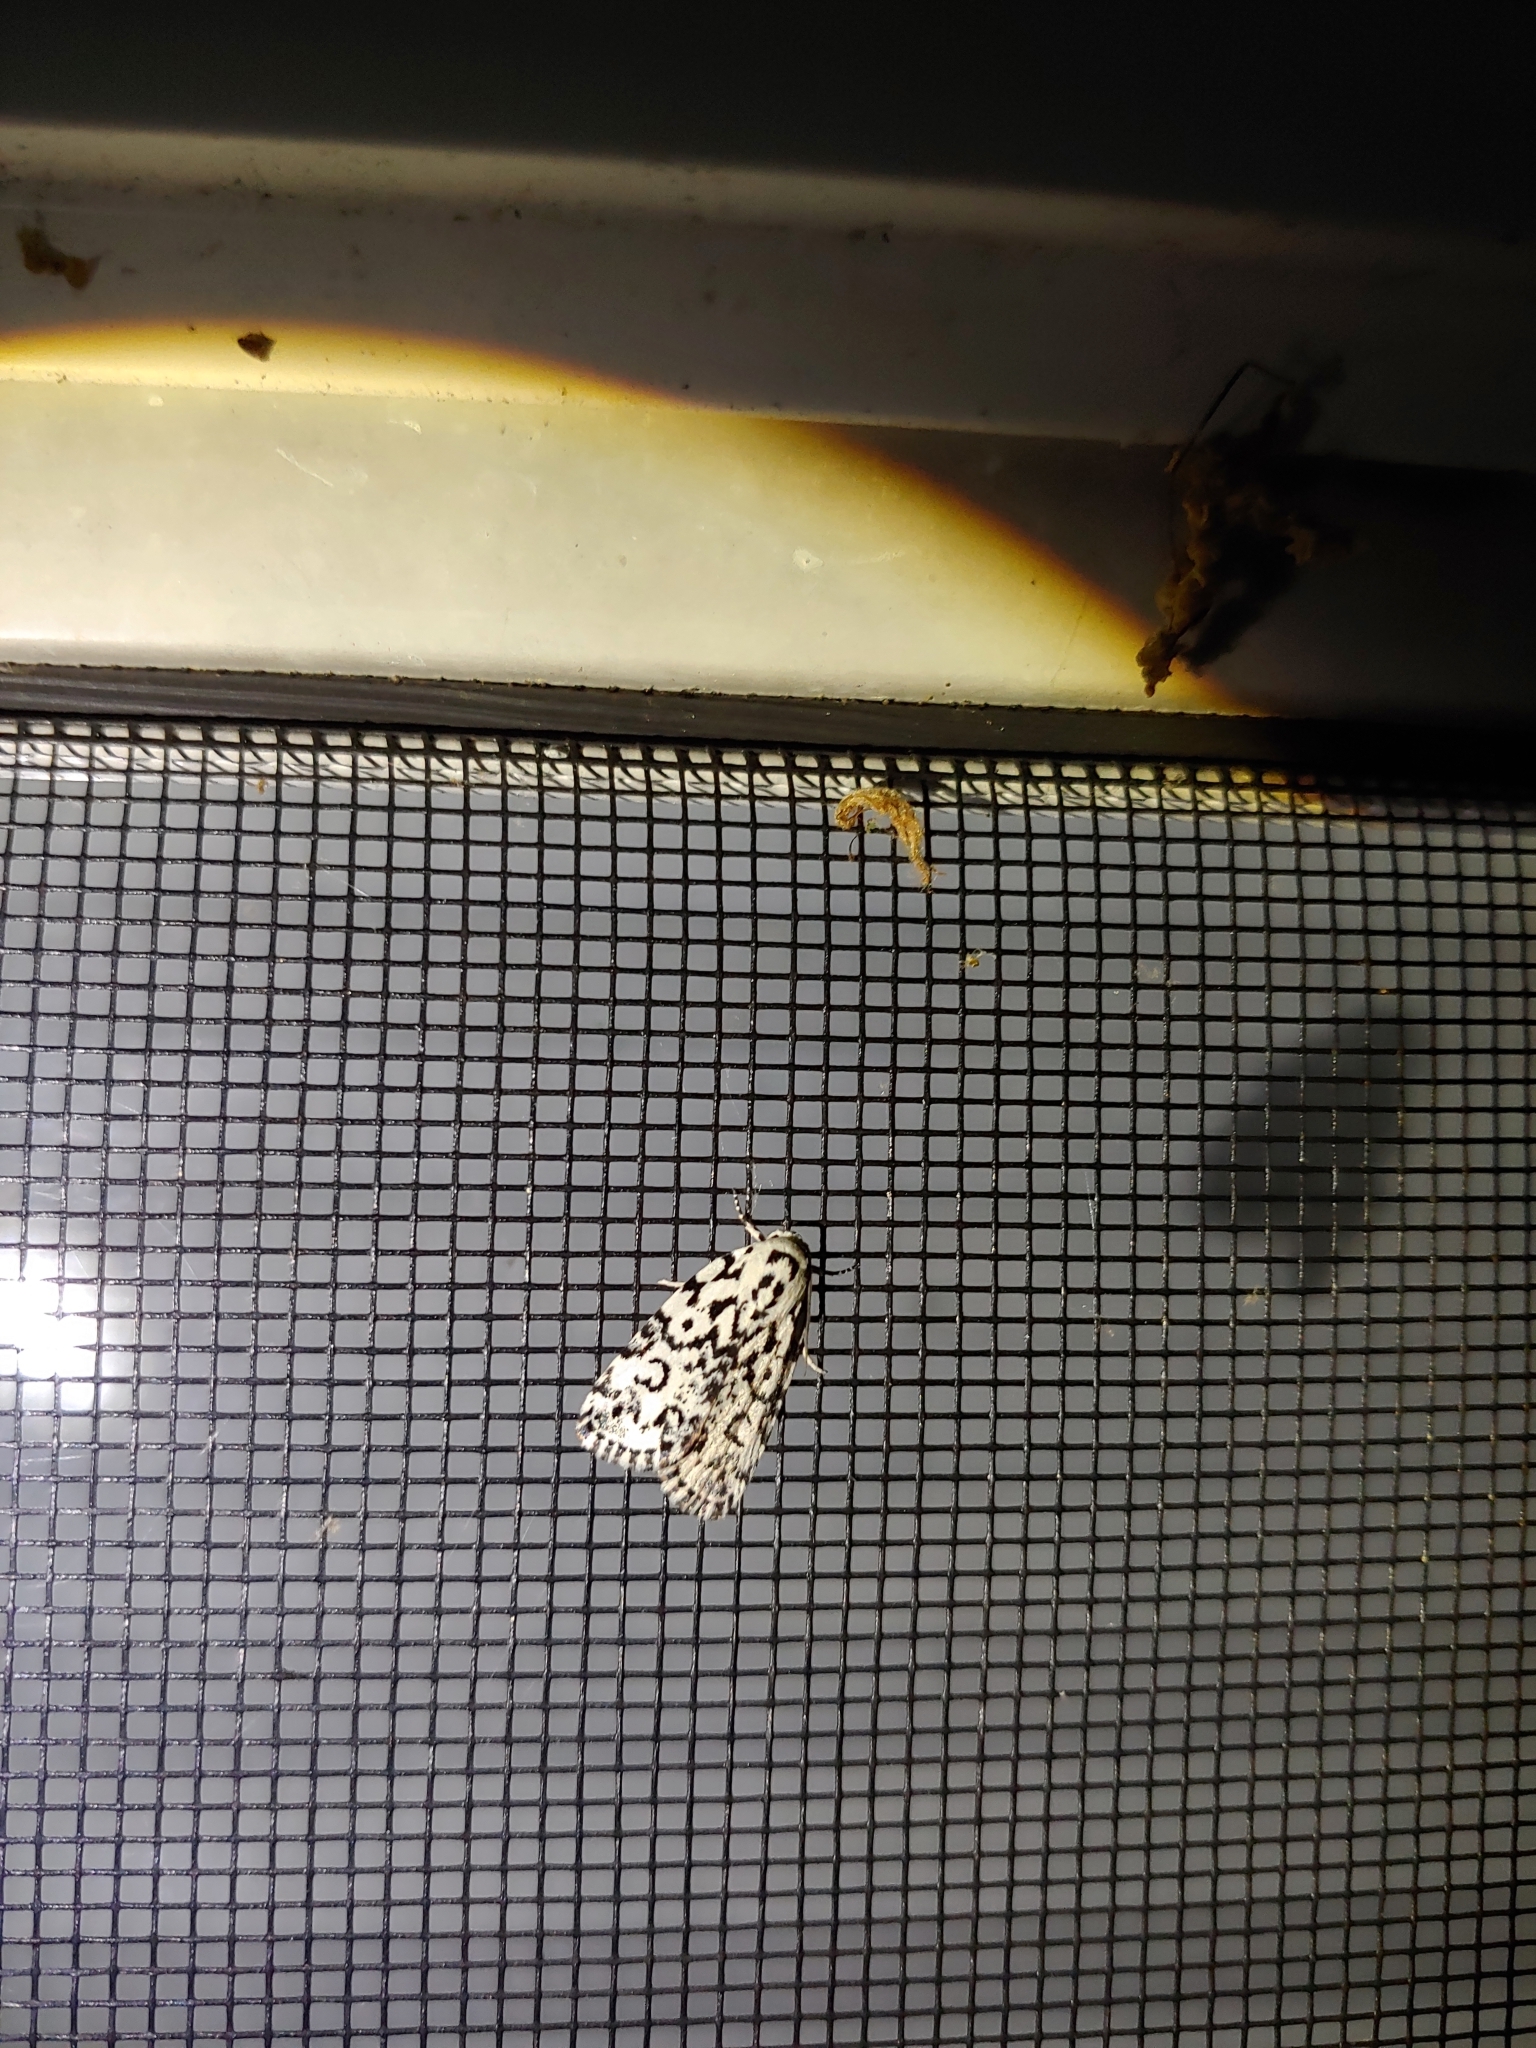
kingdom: Animalia
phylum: Arthropoda
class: Insecta
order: Lepidoptera
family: Noctuidae
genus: Polygrammate
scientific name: Polygrammate hebraeicum
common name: Hebrew moth
